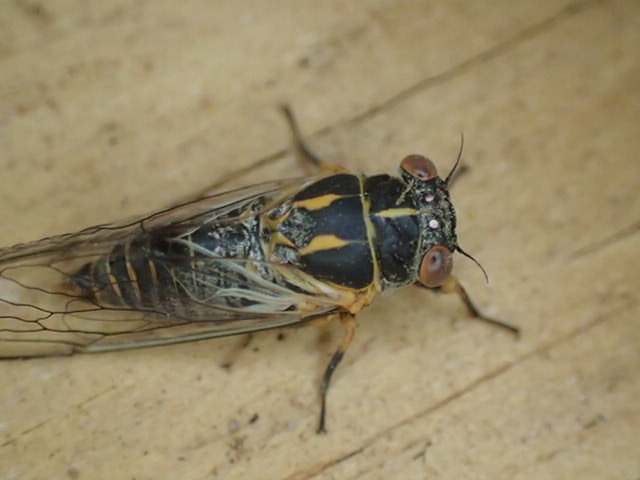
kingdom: Animalia
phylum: Arthropoda
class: Insecta
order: Hemiptera
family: Cicadidae
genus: Popplepsalta
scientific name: Popplepsalta corymbiae
